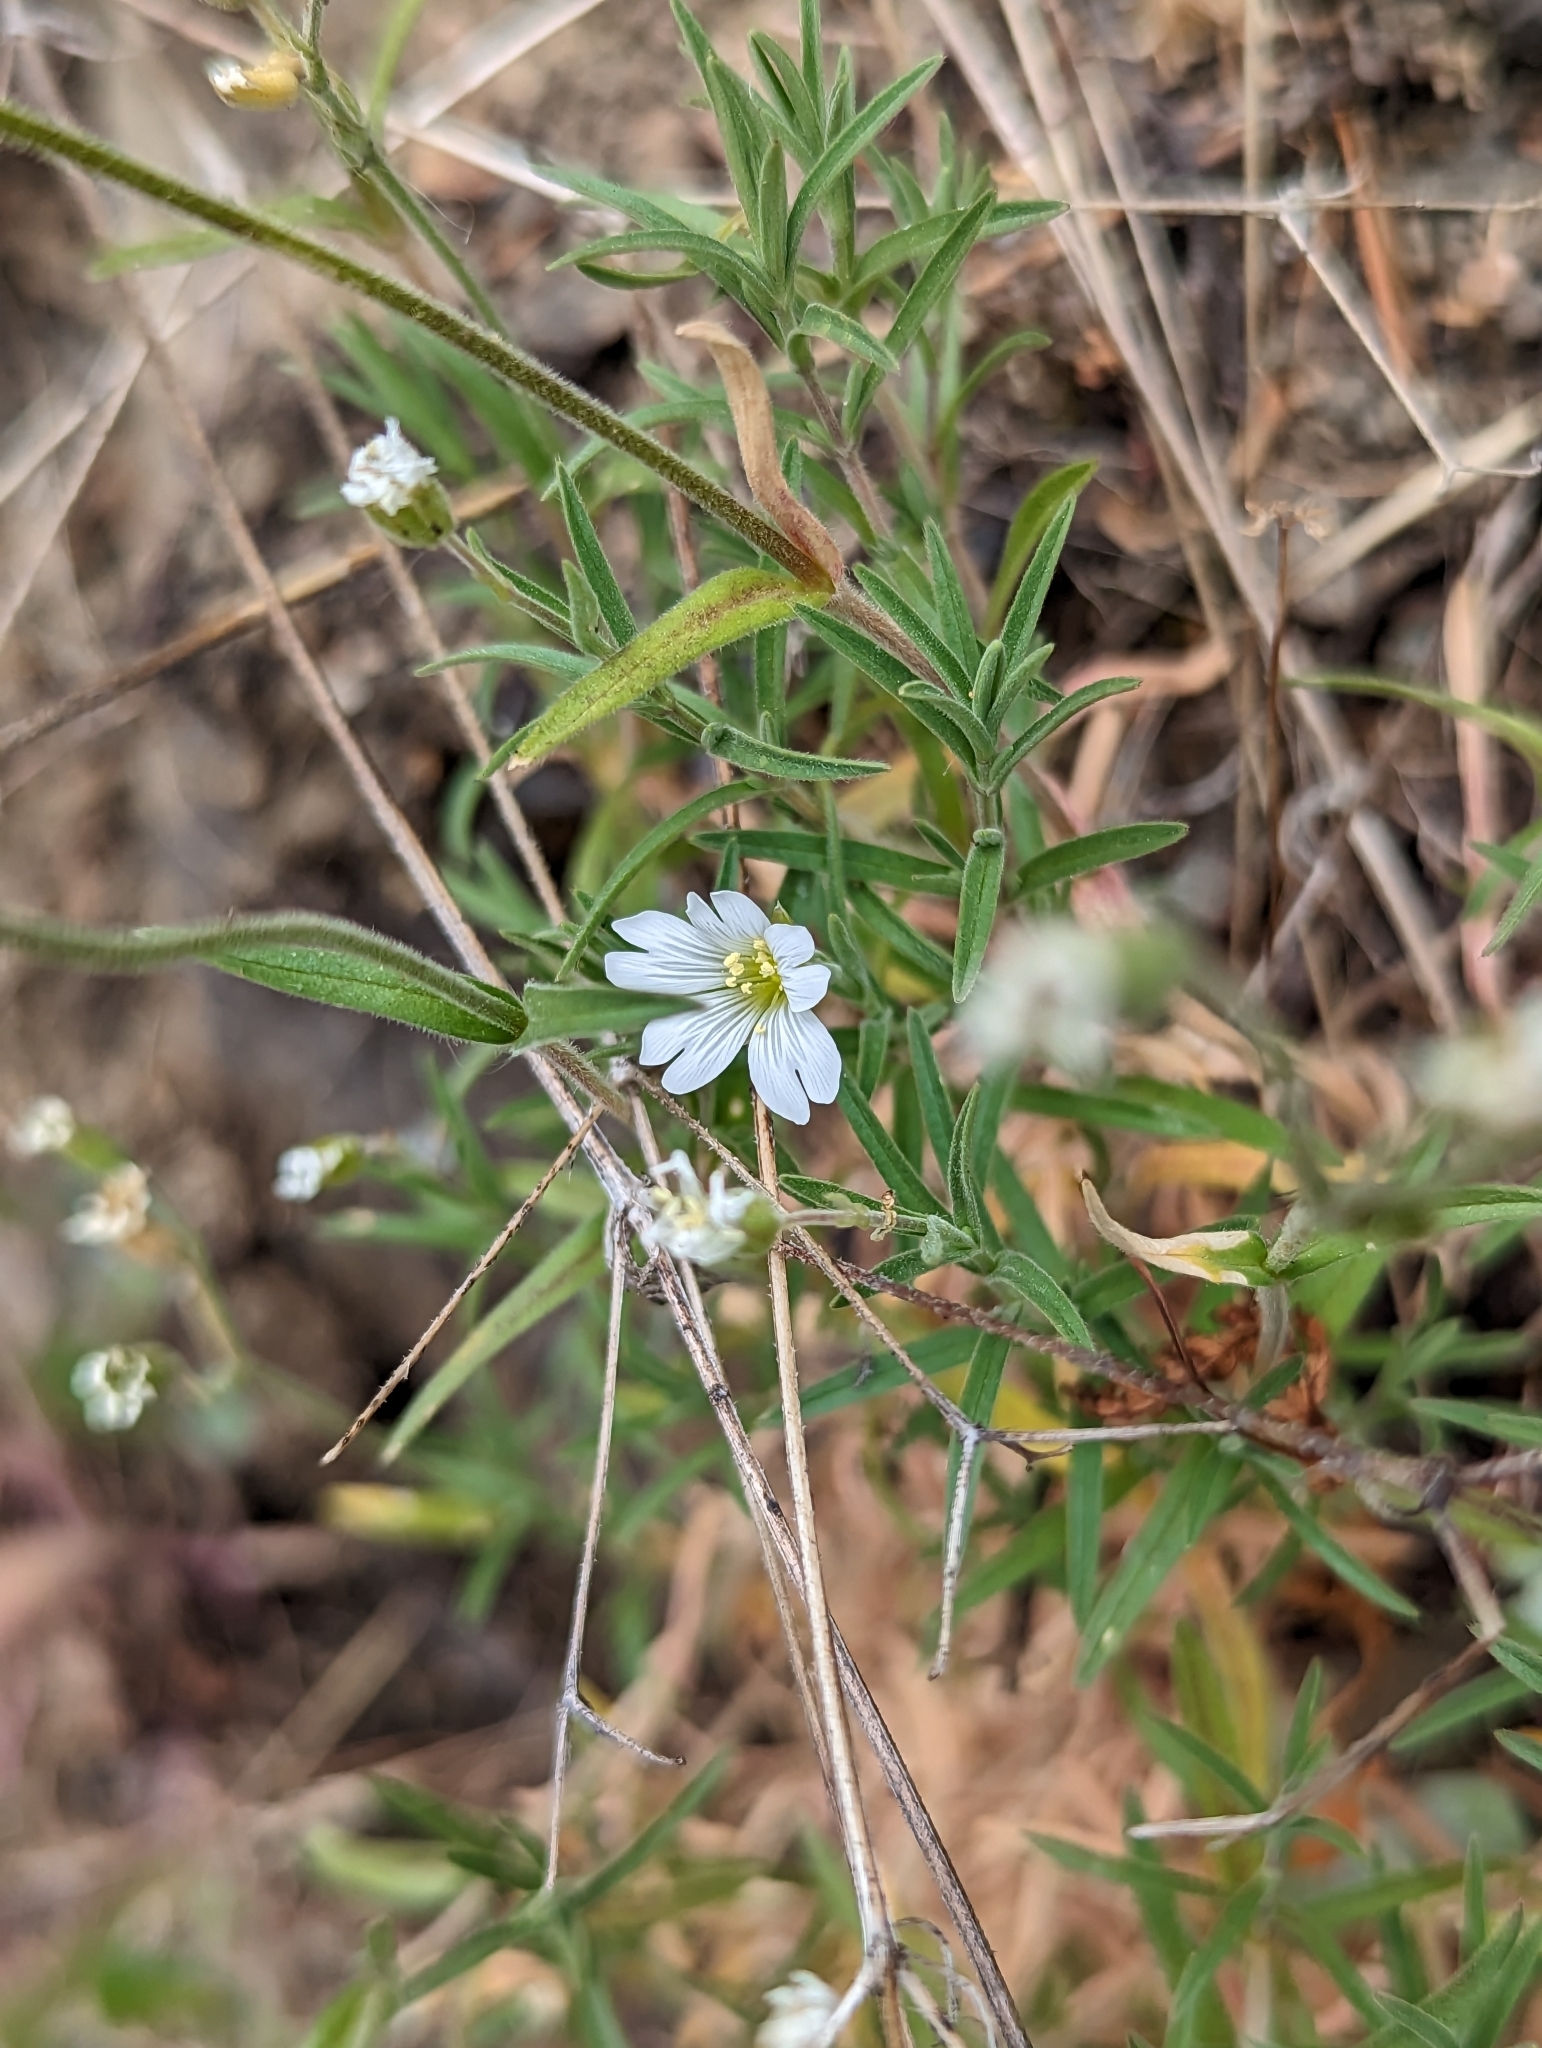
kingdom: Plantae
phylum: Tracheophyta
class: Magnoliopsida
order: Caryophyllales
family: Caryophyllaceae
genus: Cerastium
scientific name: Cerastium arvense
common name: Field mouse-ear
